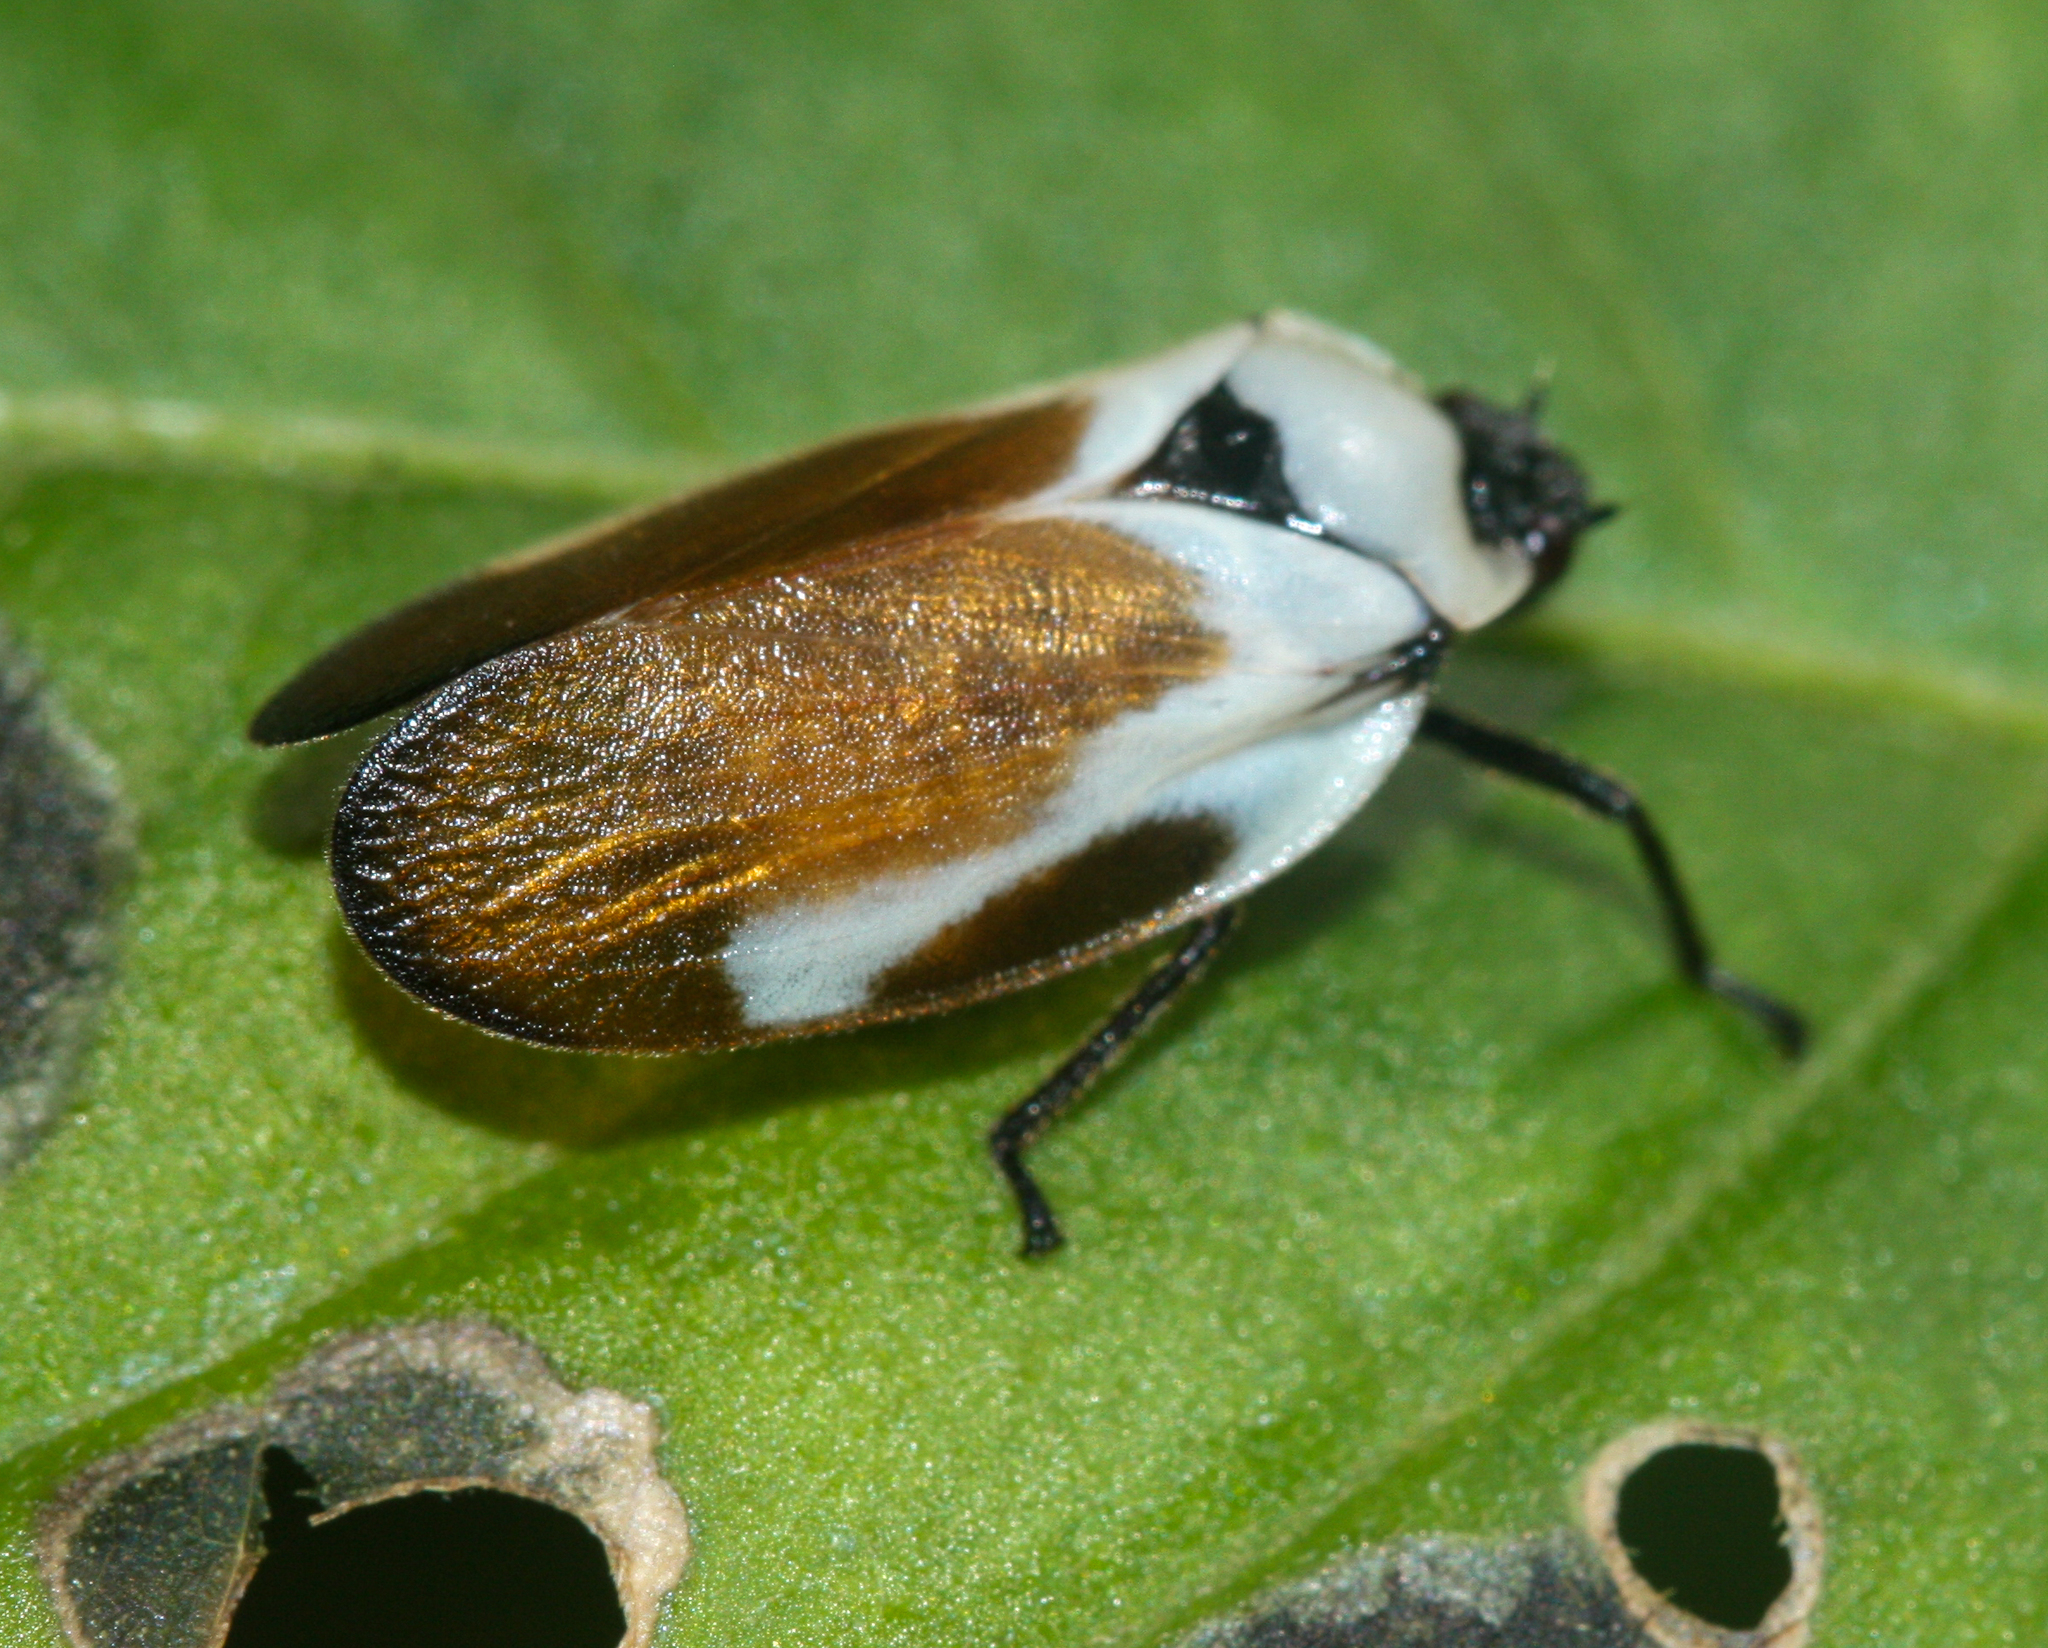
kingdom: Animalia
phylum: Arthropoda
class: Insecta
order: Hemiptera
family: Cercopidae
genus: Sphenorhina
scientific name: Sphenorhina quadrifera
